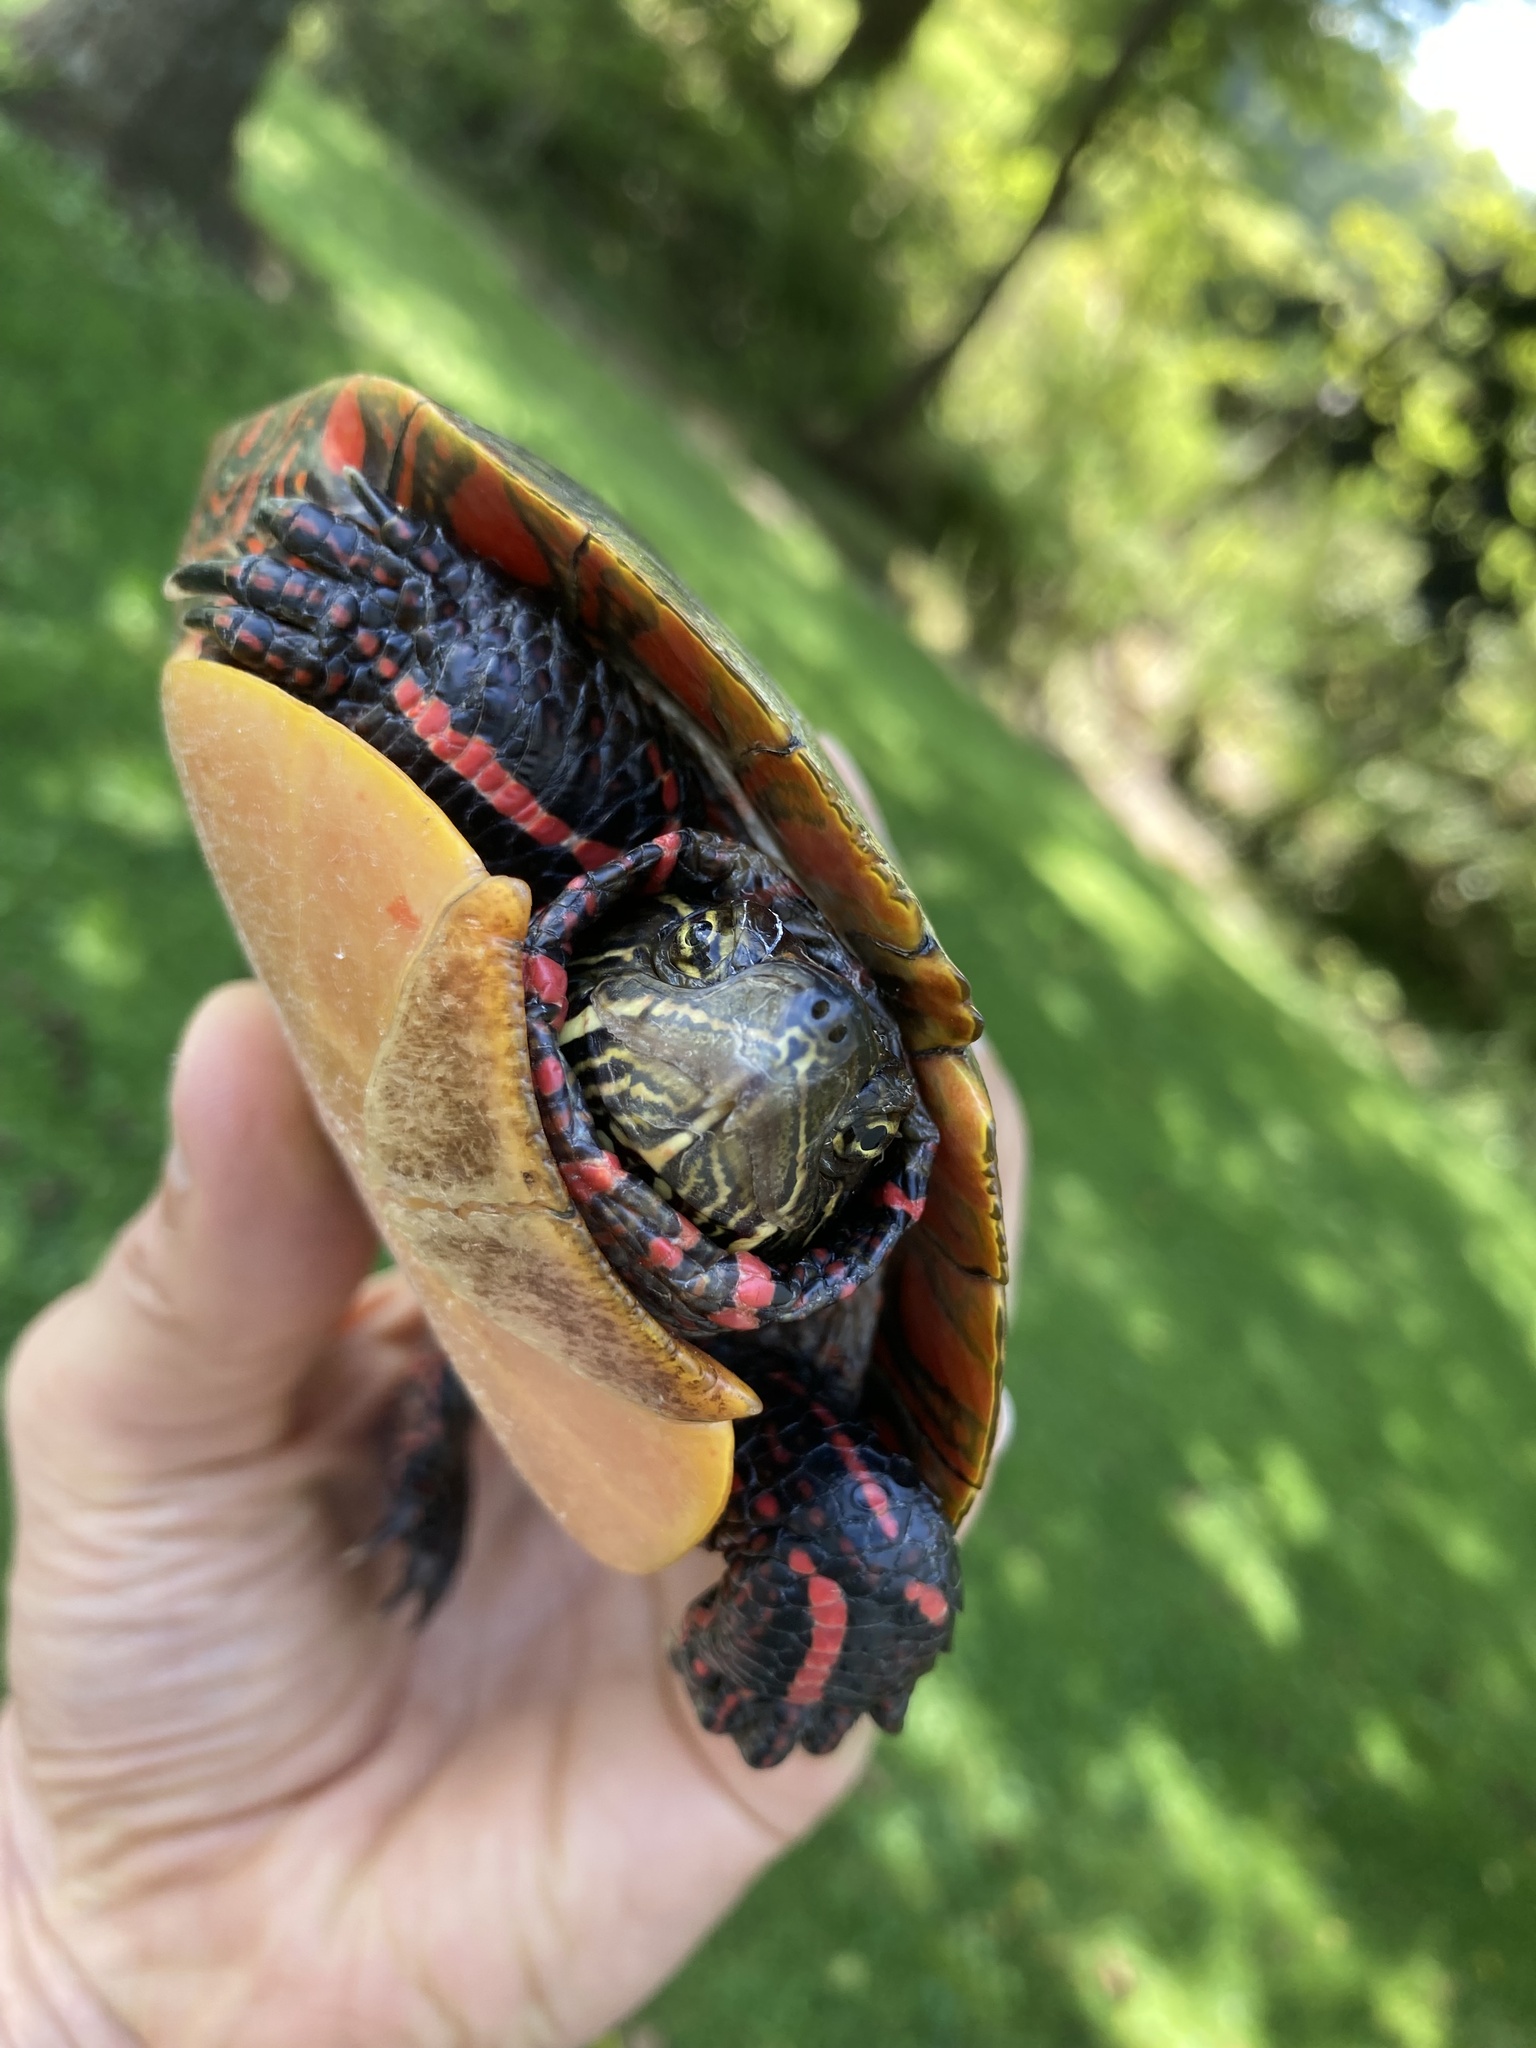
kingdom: Animalia
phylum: Chordata
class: Testudines
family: Emydidae
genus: Chrysemys
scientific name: Chrysemys picta
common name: Painted turtle
